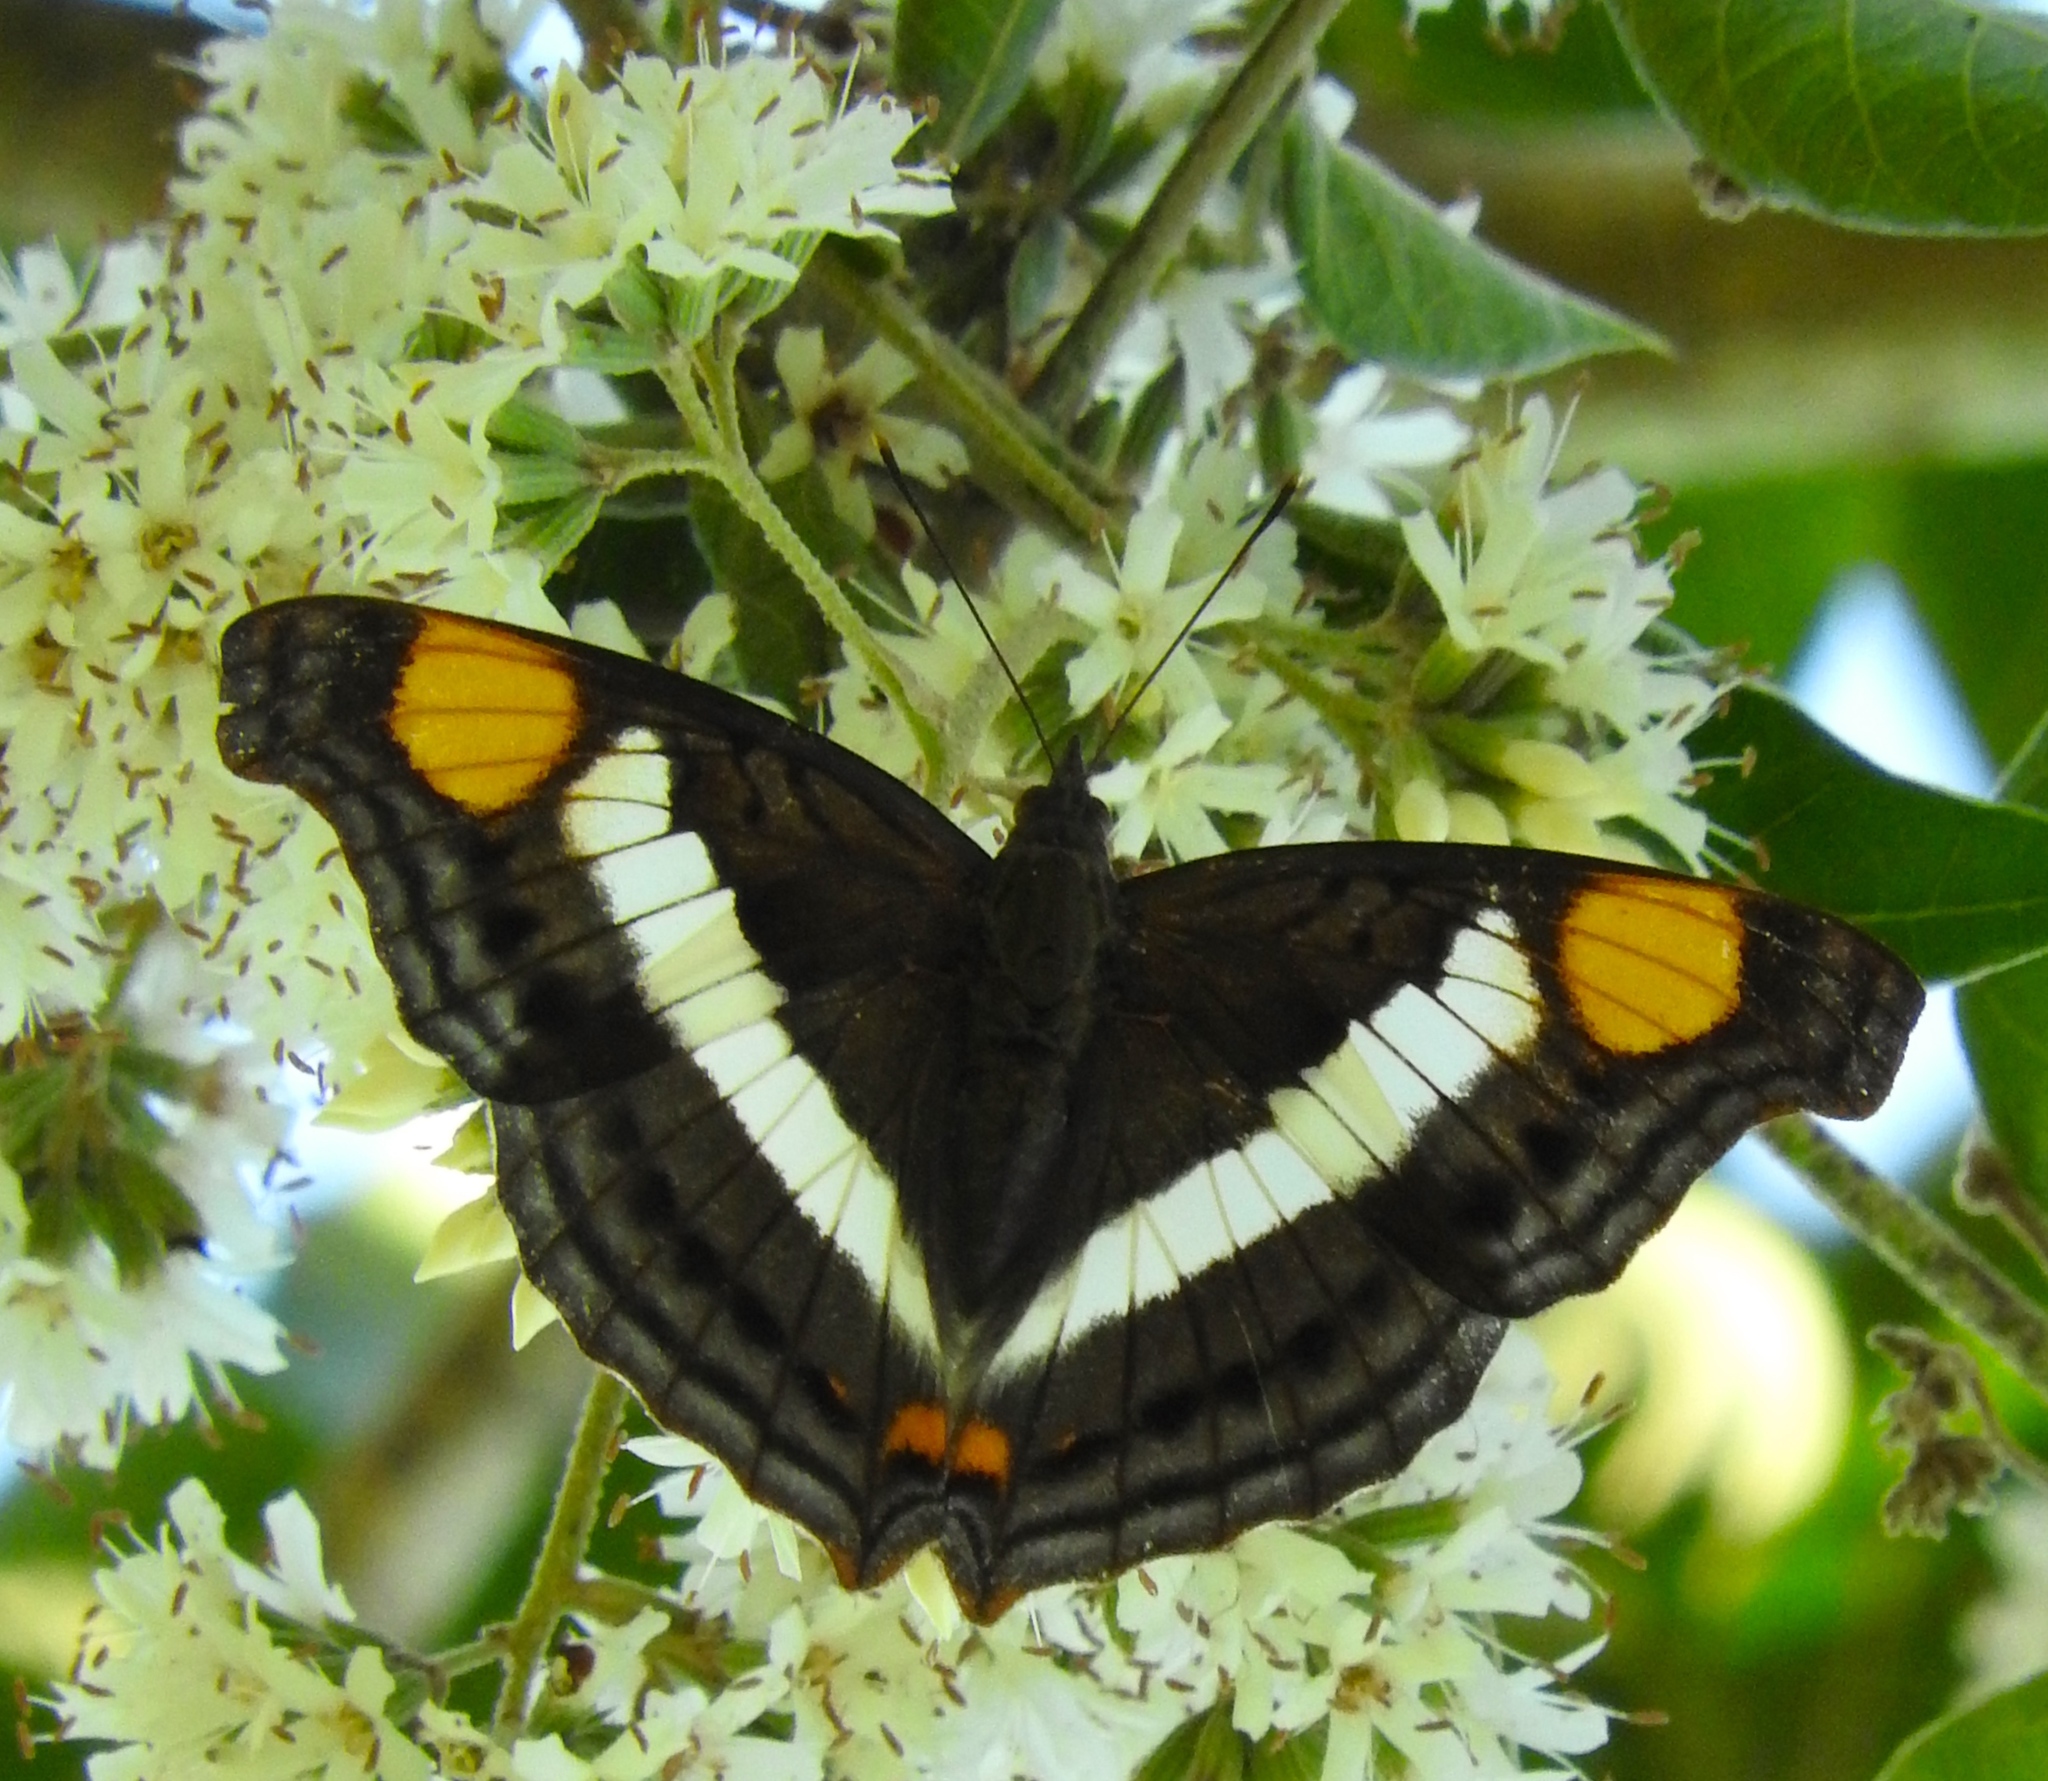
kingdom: Animalia
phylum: Arthropoda
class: Insecta
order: Lepidoptera
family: Nymphalidae
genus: Doxocopa
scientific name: Doxocopa laure
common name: Silver emperor
